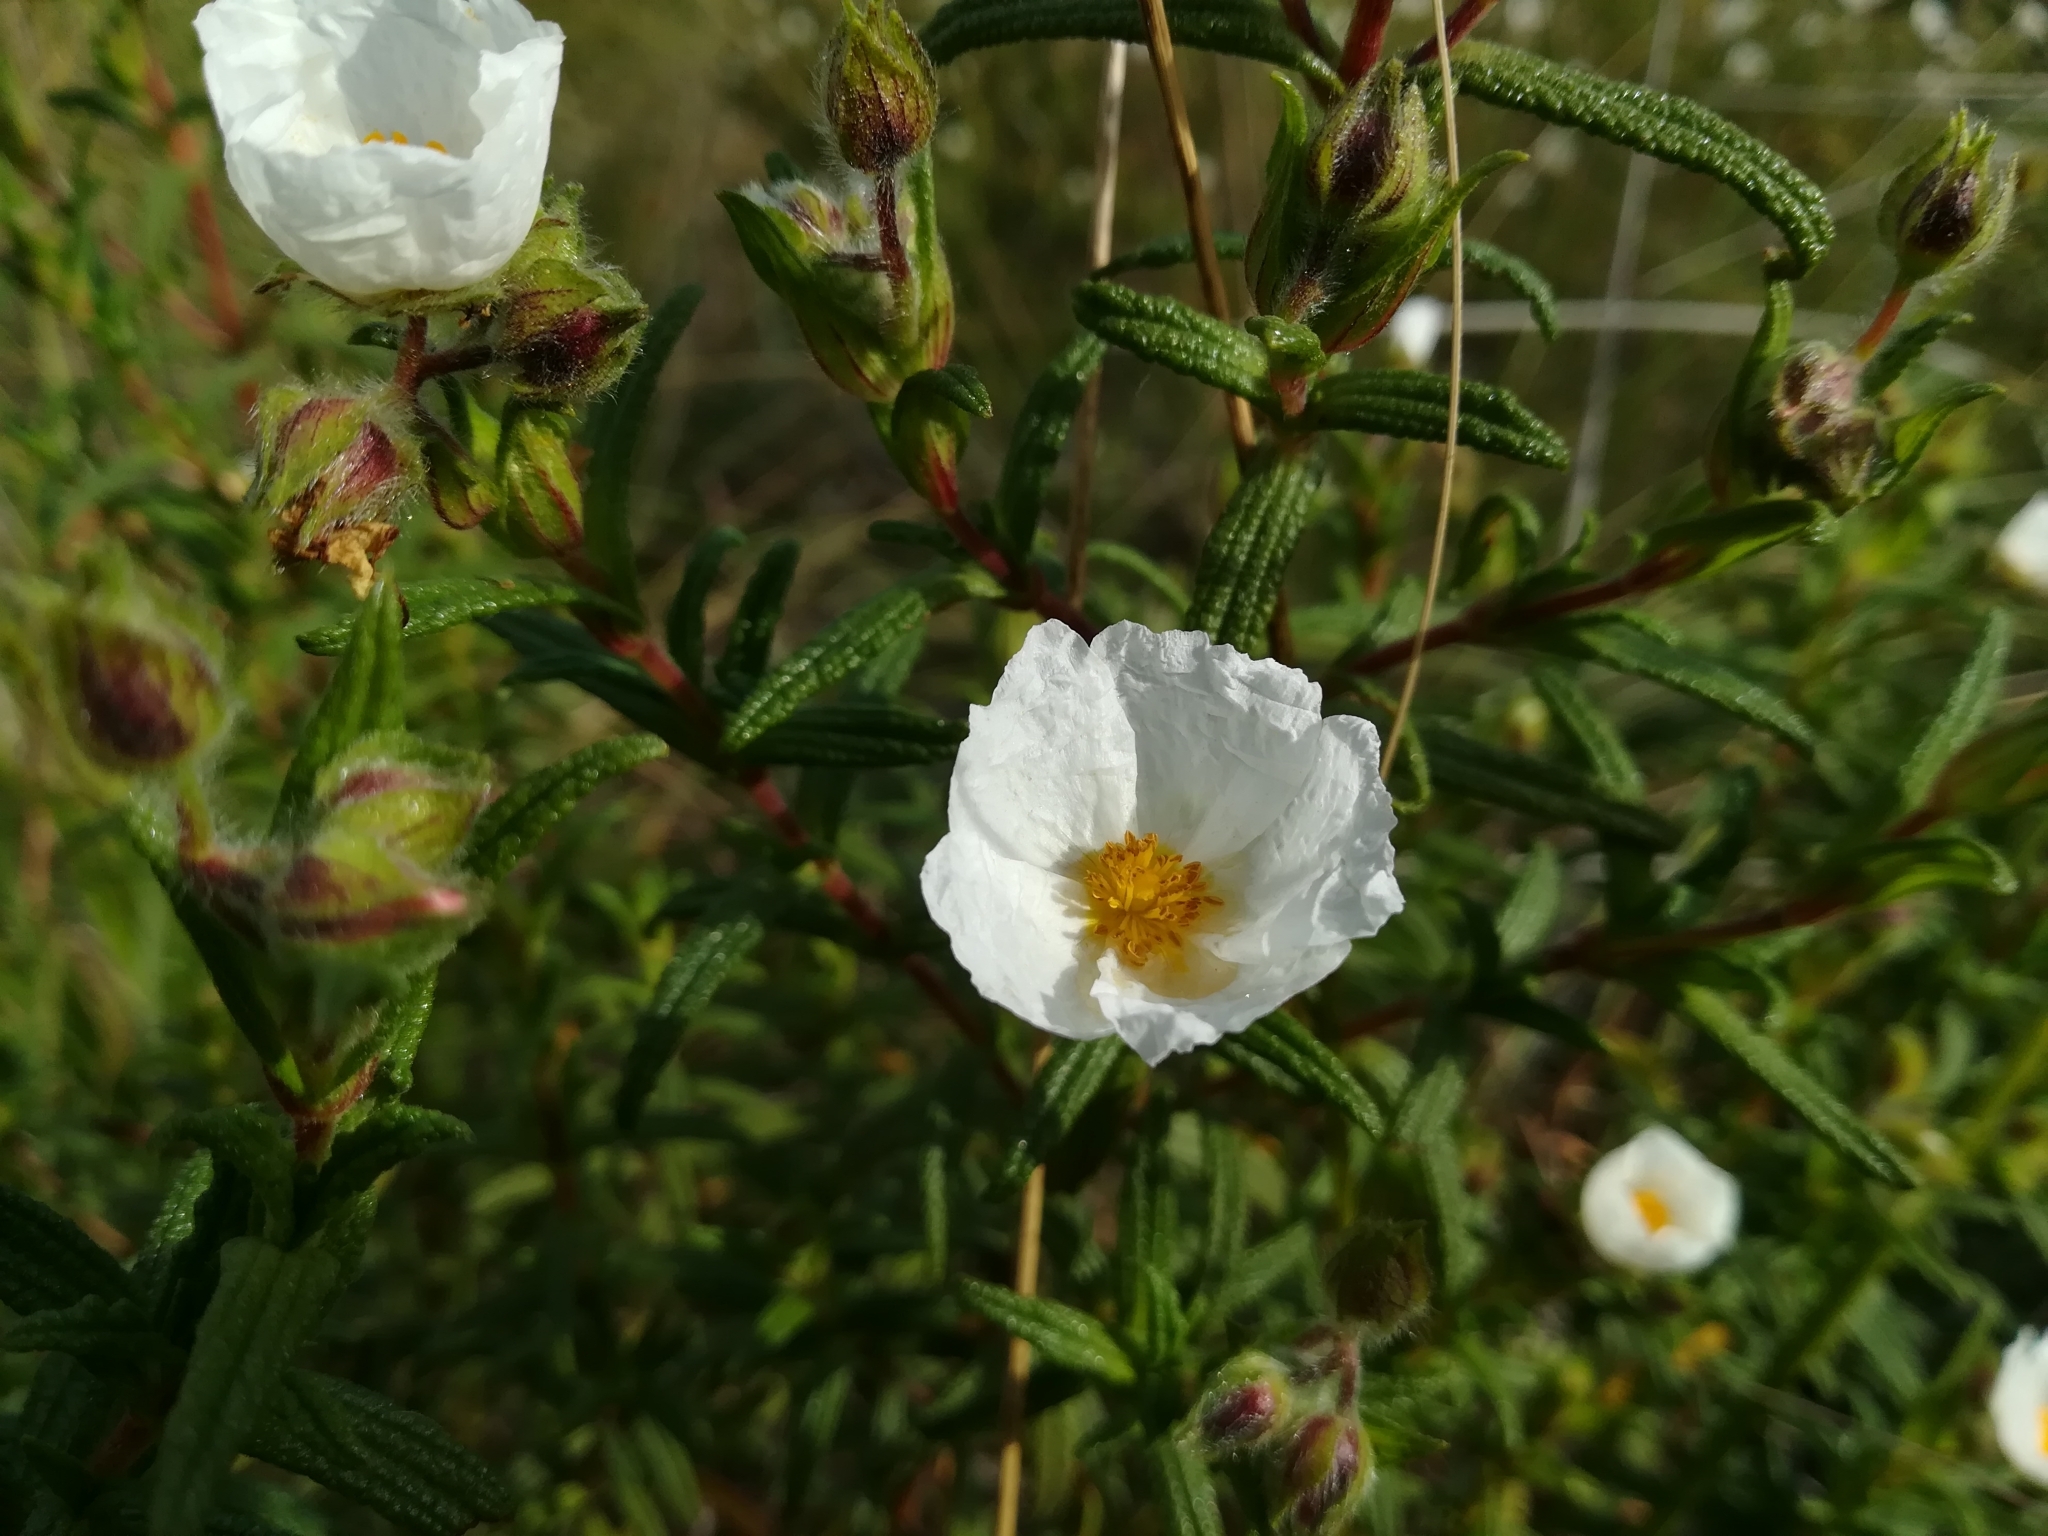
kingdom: Plantae
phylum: Tracheophyta
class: Magnoliopsida
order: Malvales
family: Cistaceae
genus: Cistus
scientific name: Cistus monspeliensis
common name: Montpelier cistus
